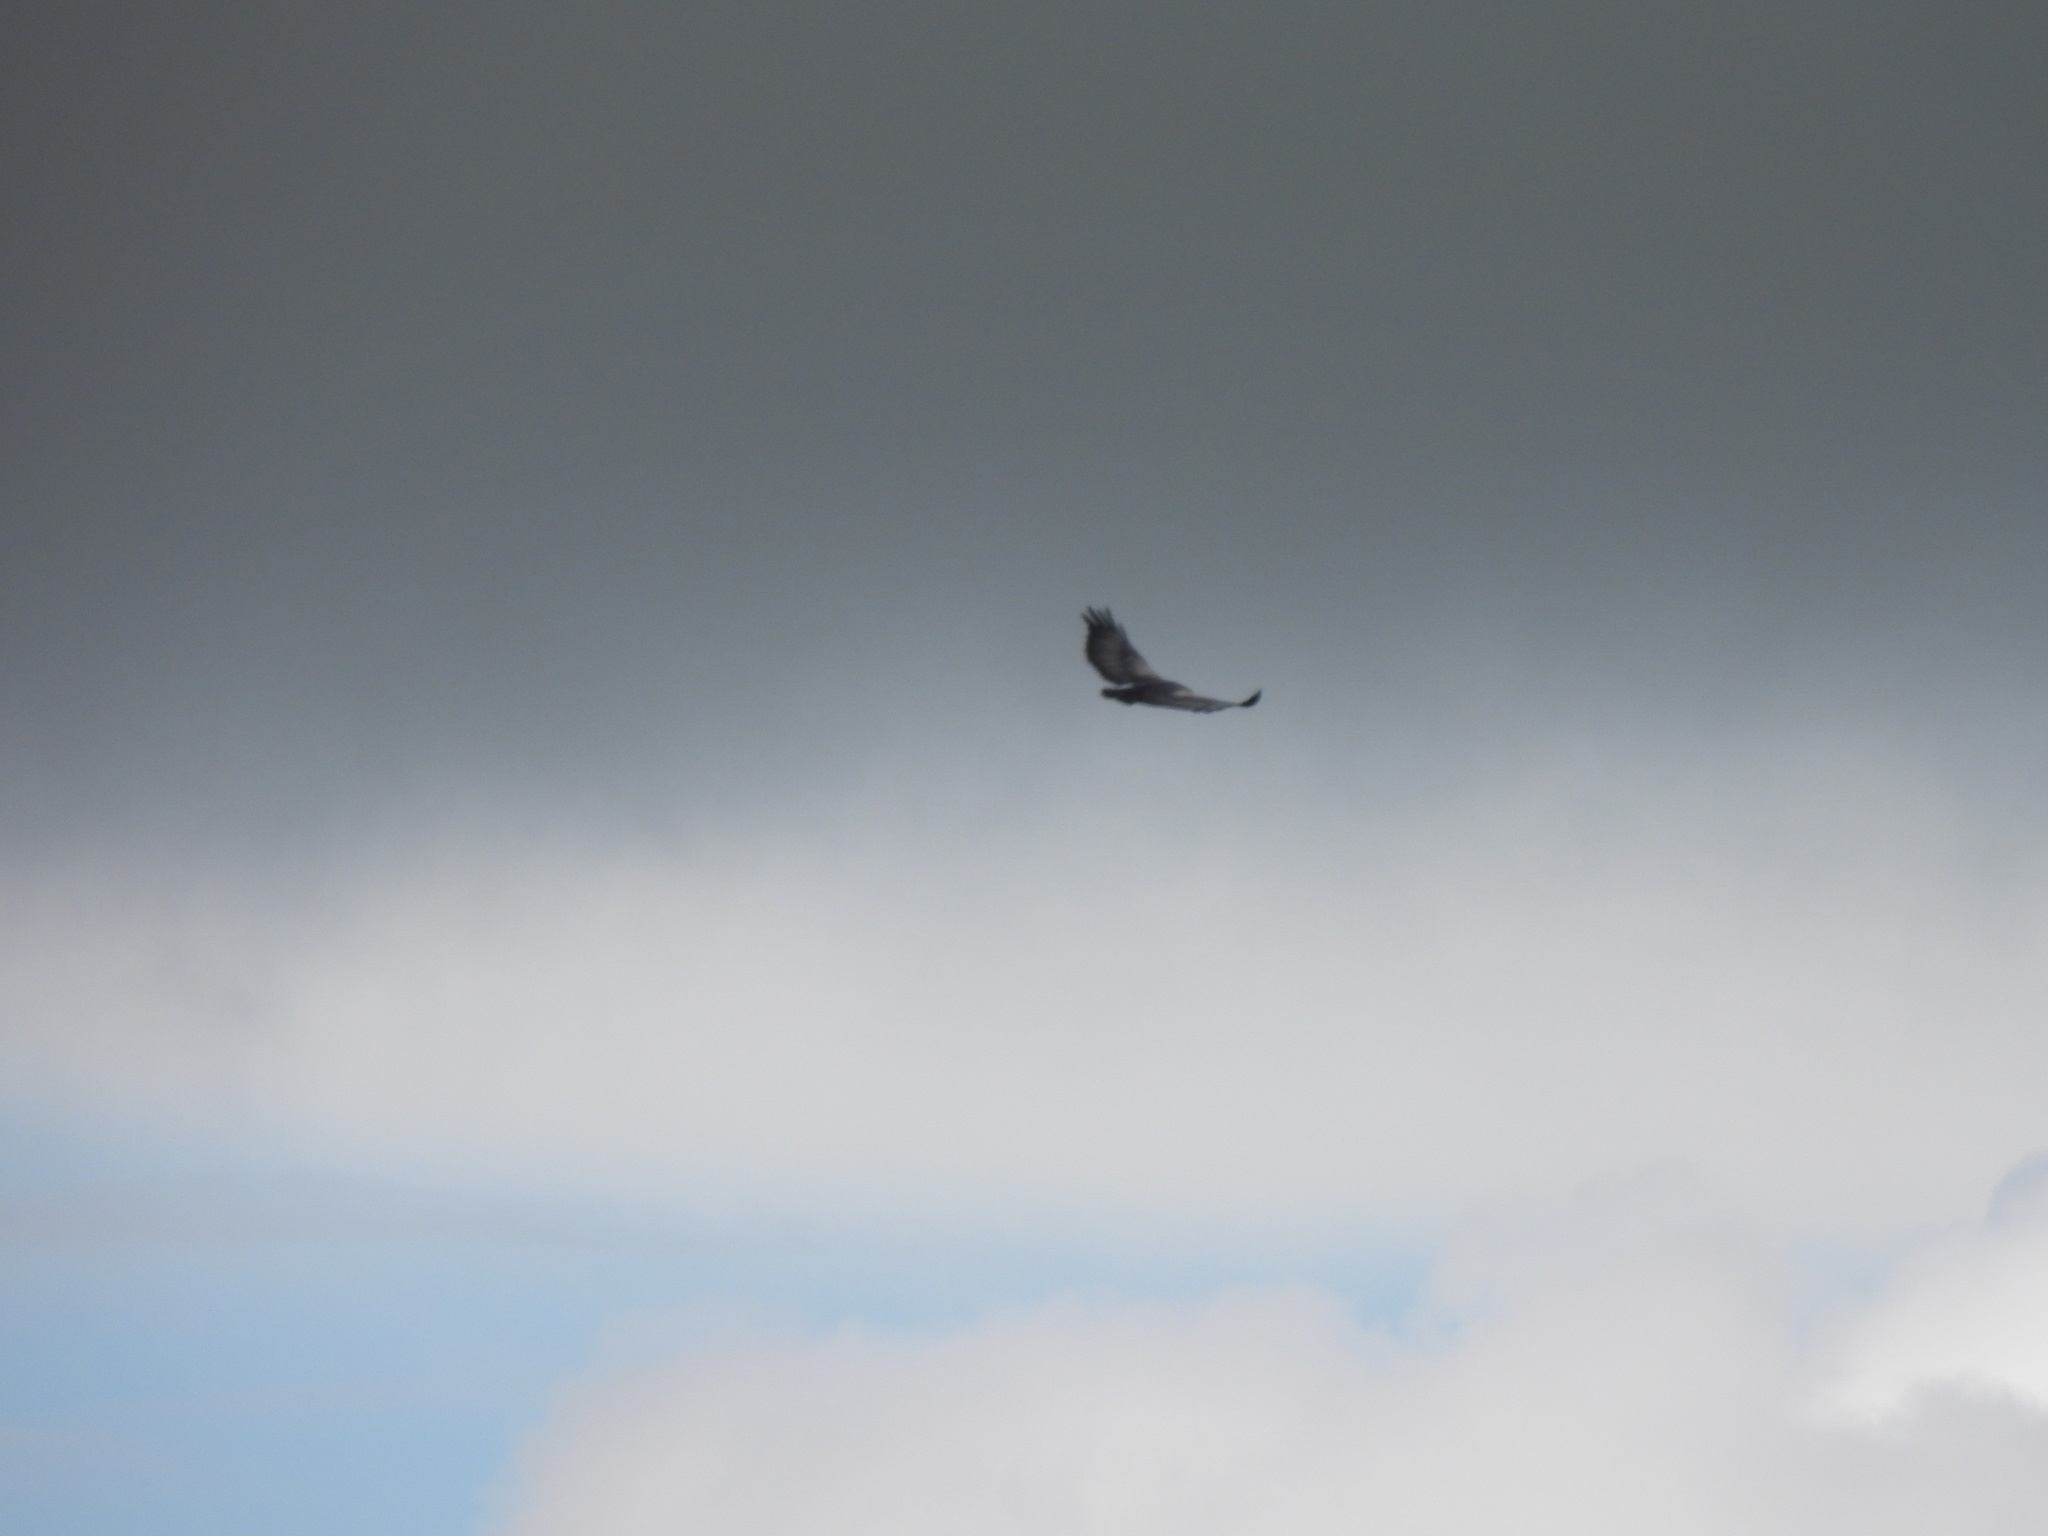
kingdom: Animalia
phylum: Chordata
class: Aves
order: Accipitriformes
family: Accipitridae
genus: Geranoaetus
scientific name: Geranoaetus melanoleucus
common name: Black-chested buzzard-eagle
